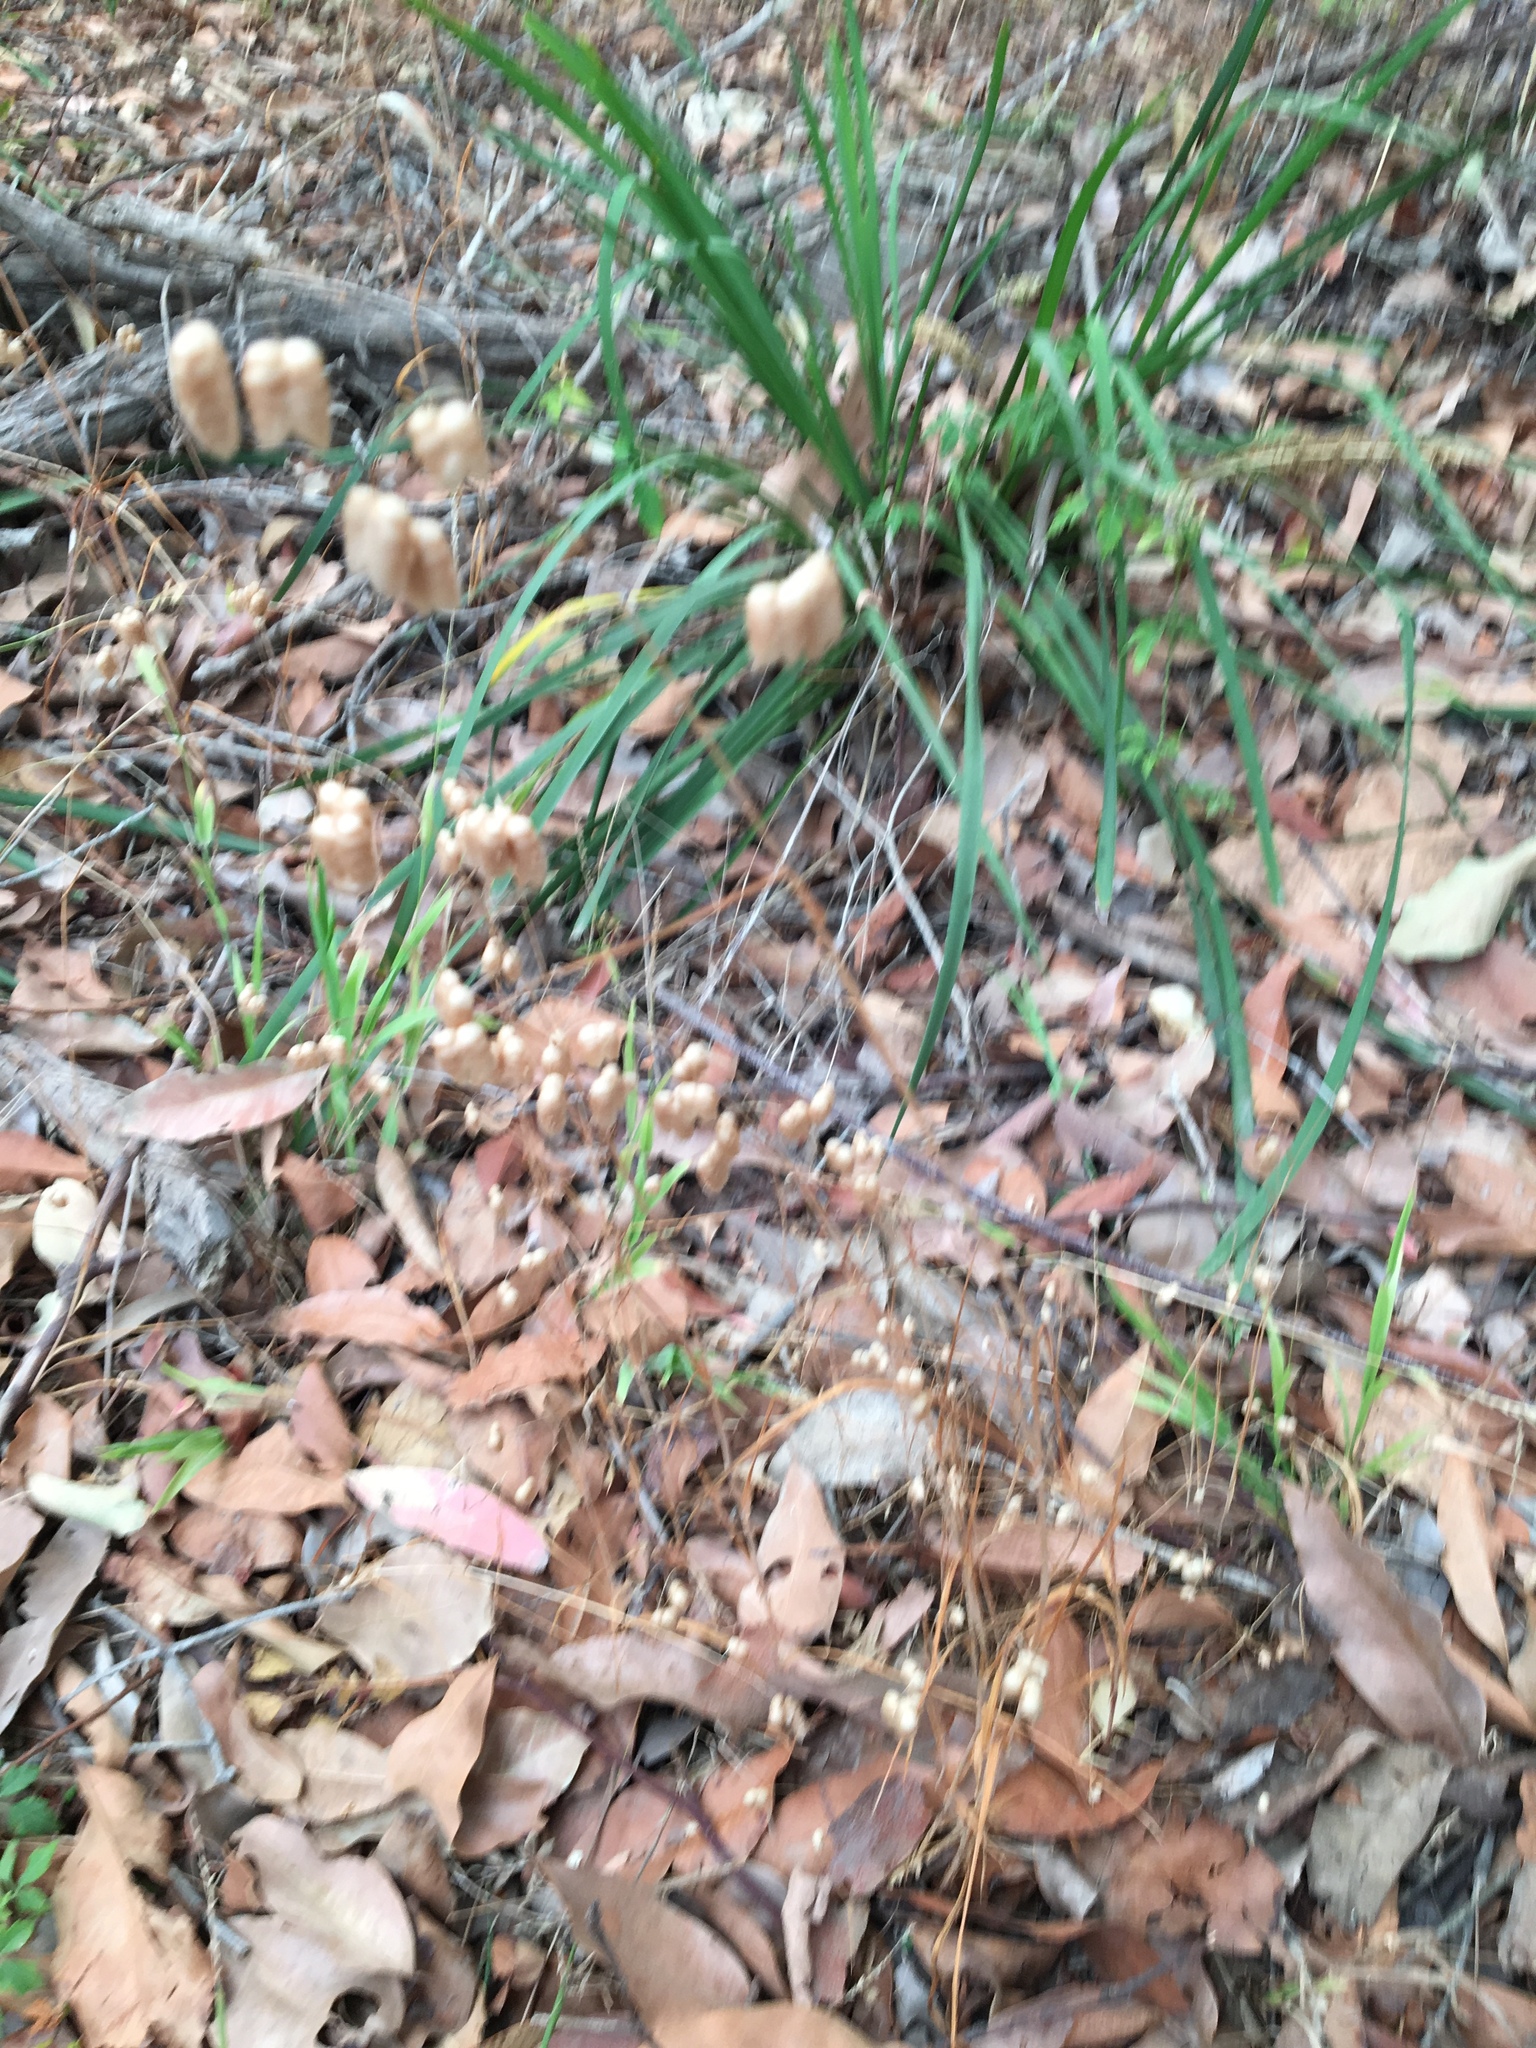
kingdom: Plantae
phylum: Tracheophyta
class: Liliopsida
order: Poales
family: Poaceae
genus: Briza
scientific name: Briza maxima
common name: Big quakinggrass
